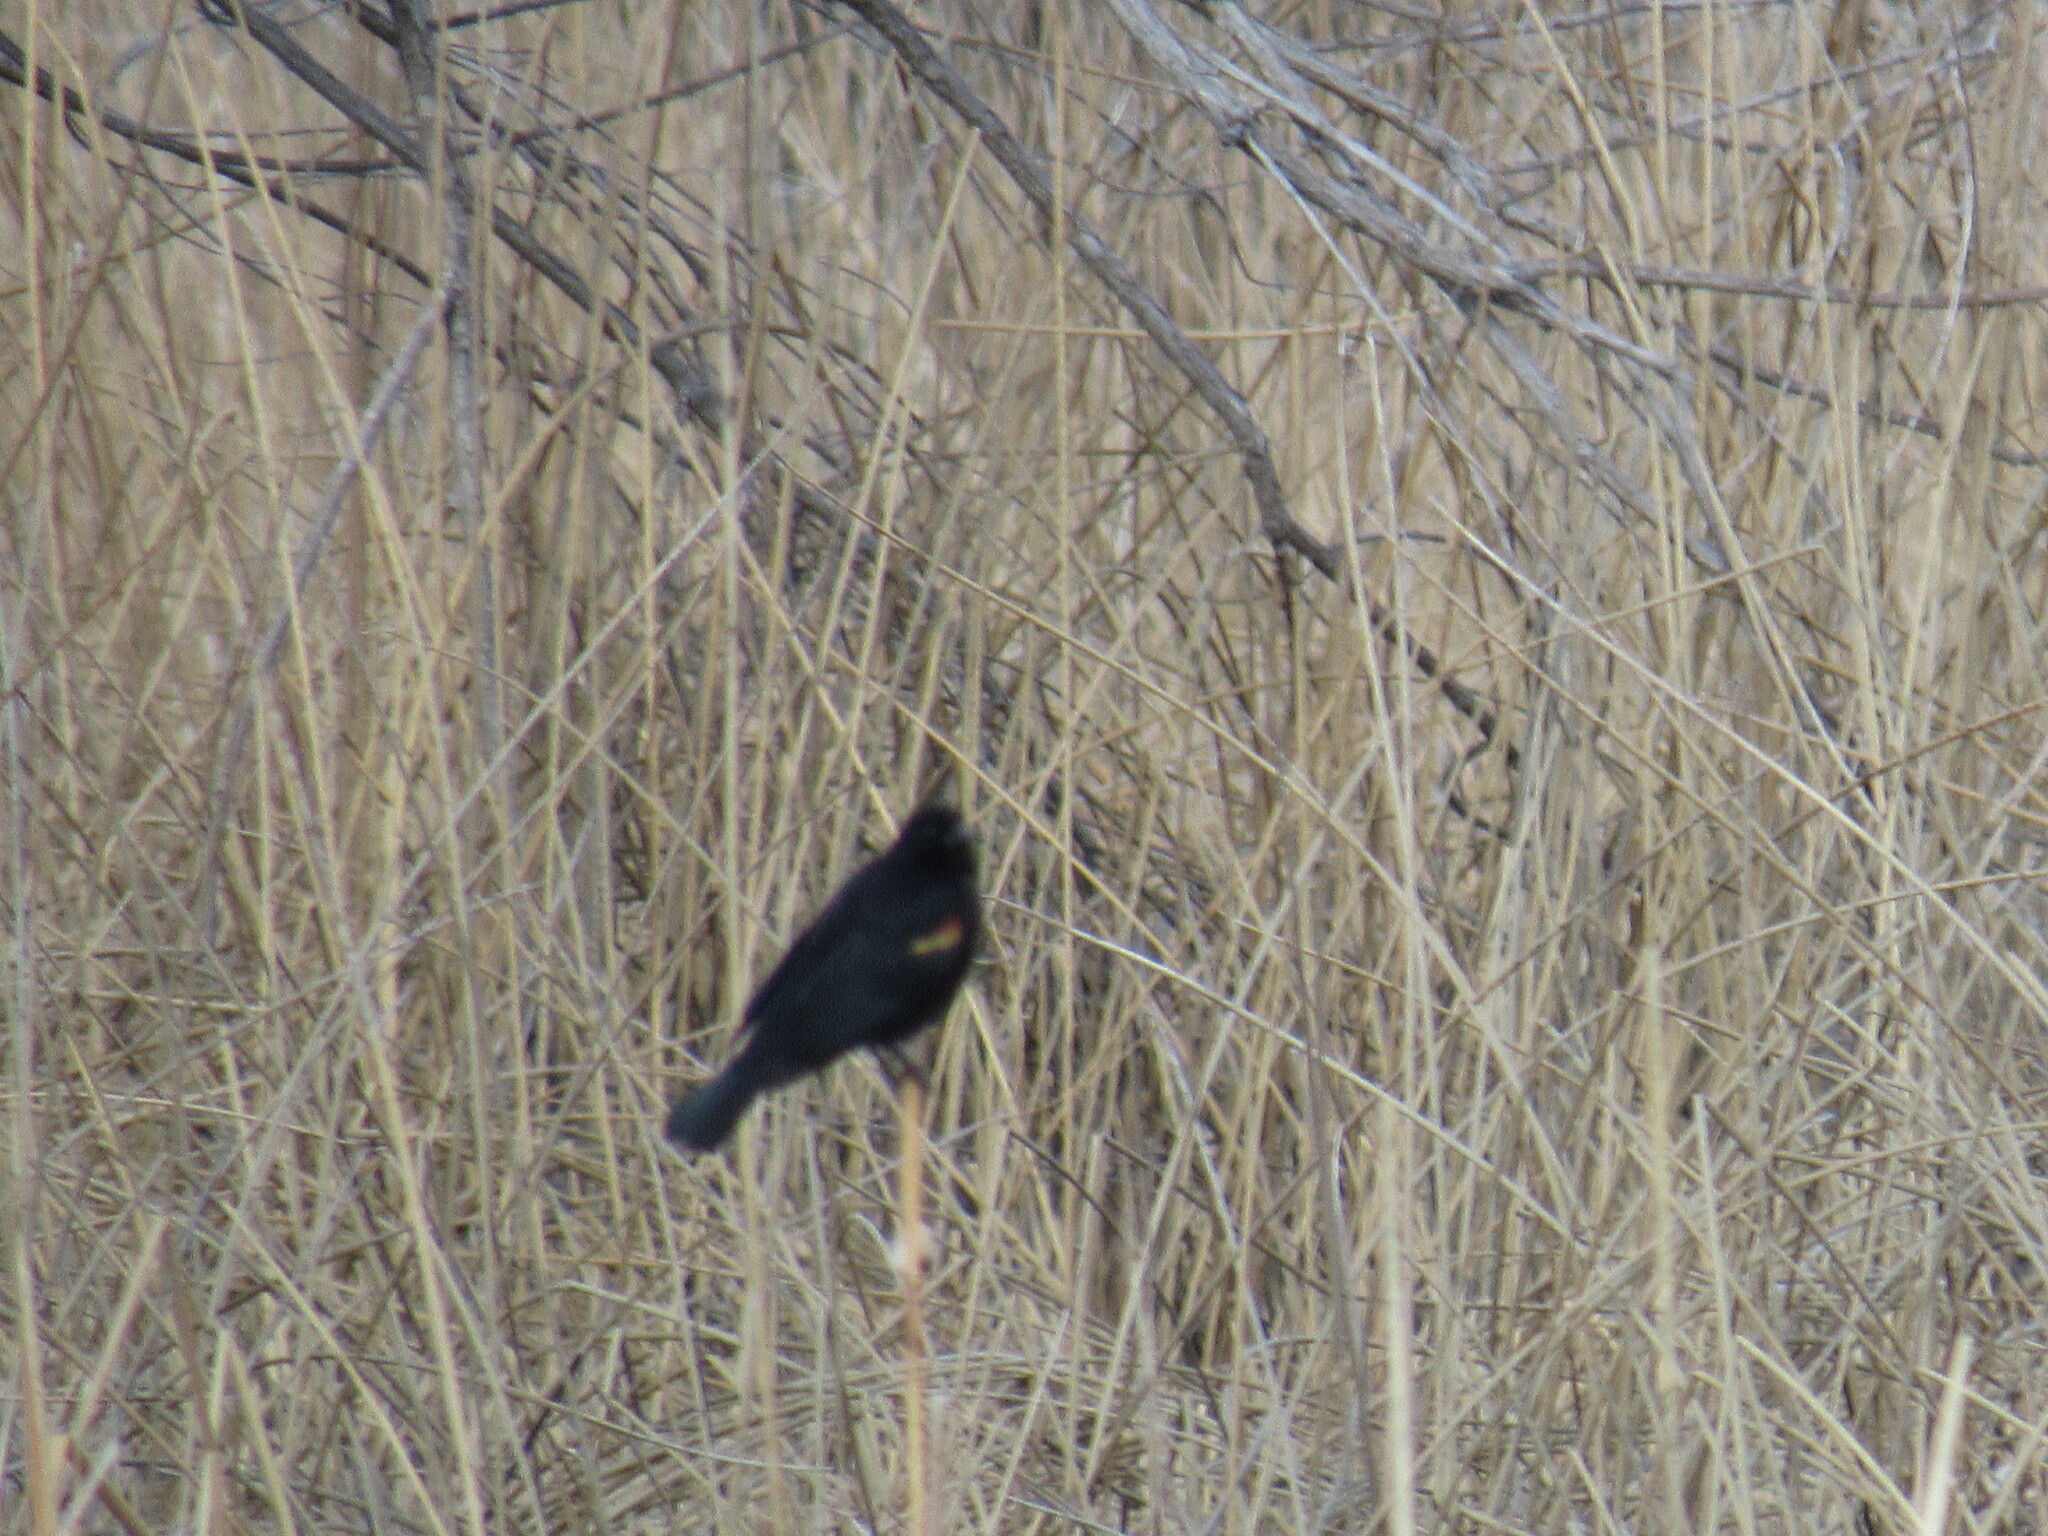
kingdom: Animalia
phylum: Chordata
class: Aves
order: Passeriformes
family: Icteridae
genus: Agelaius
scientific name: Agelaius phoeniceus
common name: Red-winged blackbird
